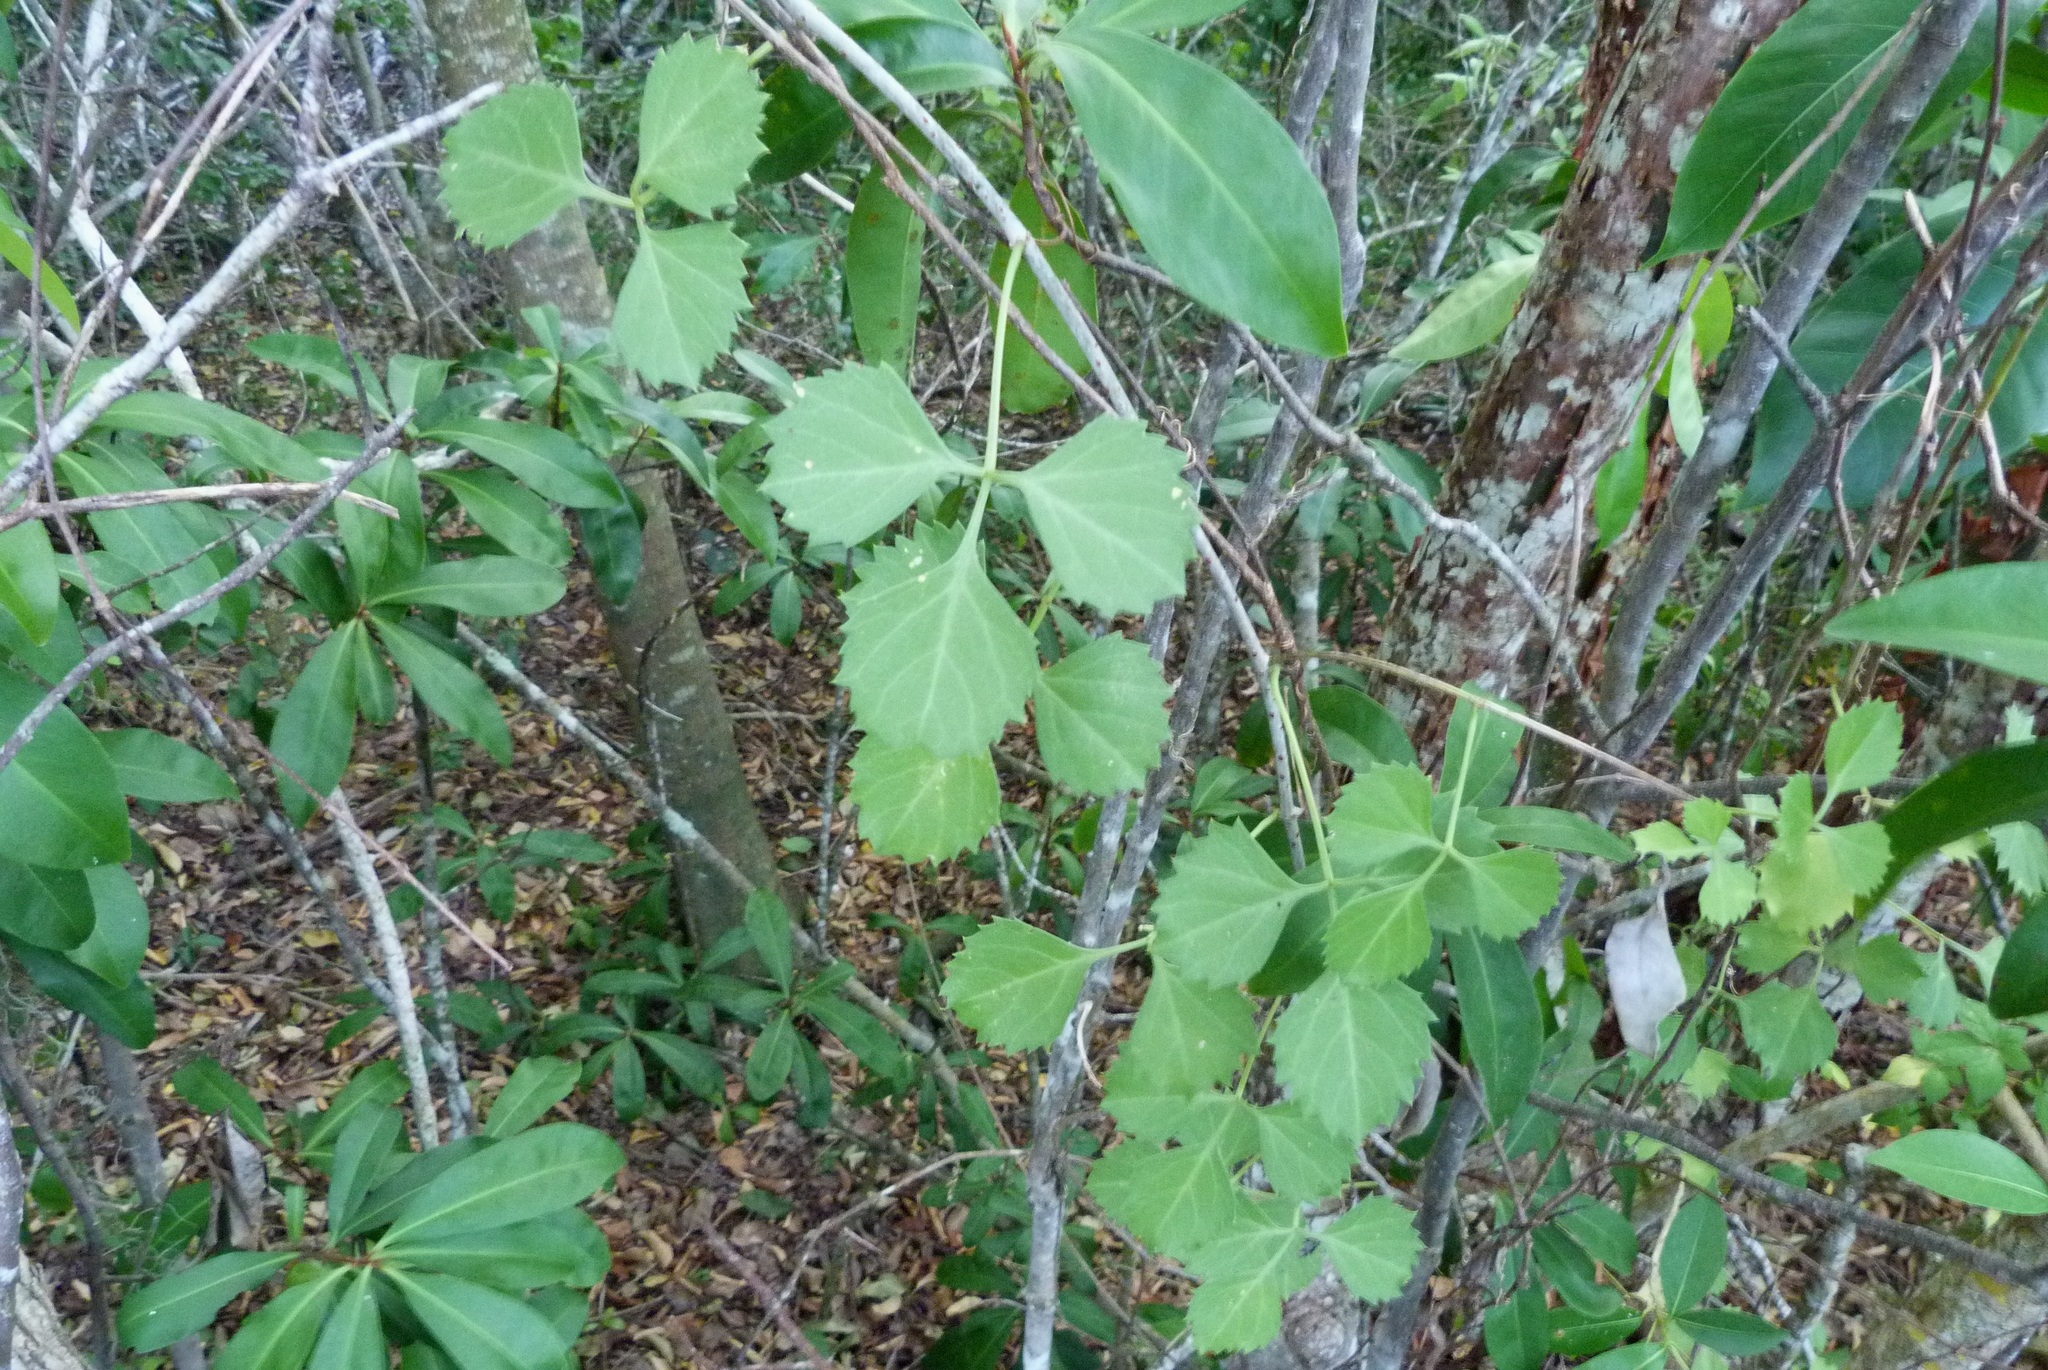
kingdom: Plantae
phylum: Tracheophyta
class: Magnoliopsida
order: Vitales
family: Vitaceae
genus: Cissus
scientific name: Cissus trifoliata
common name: Vine-sorrel
